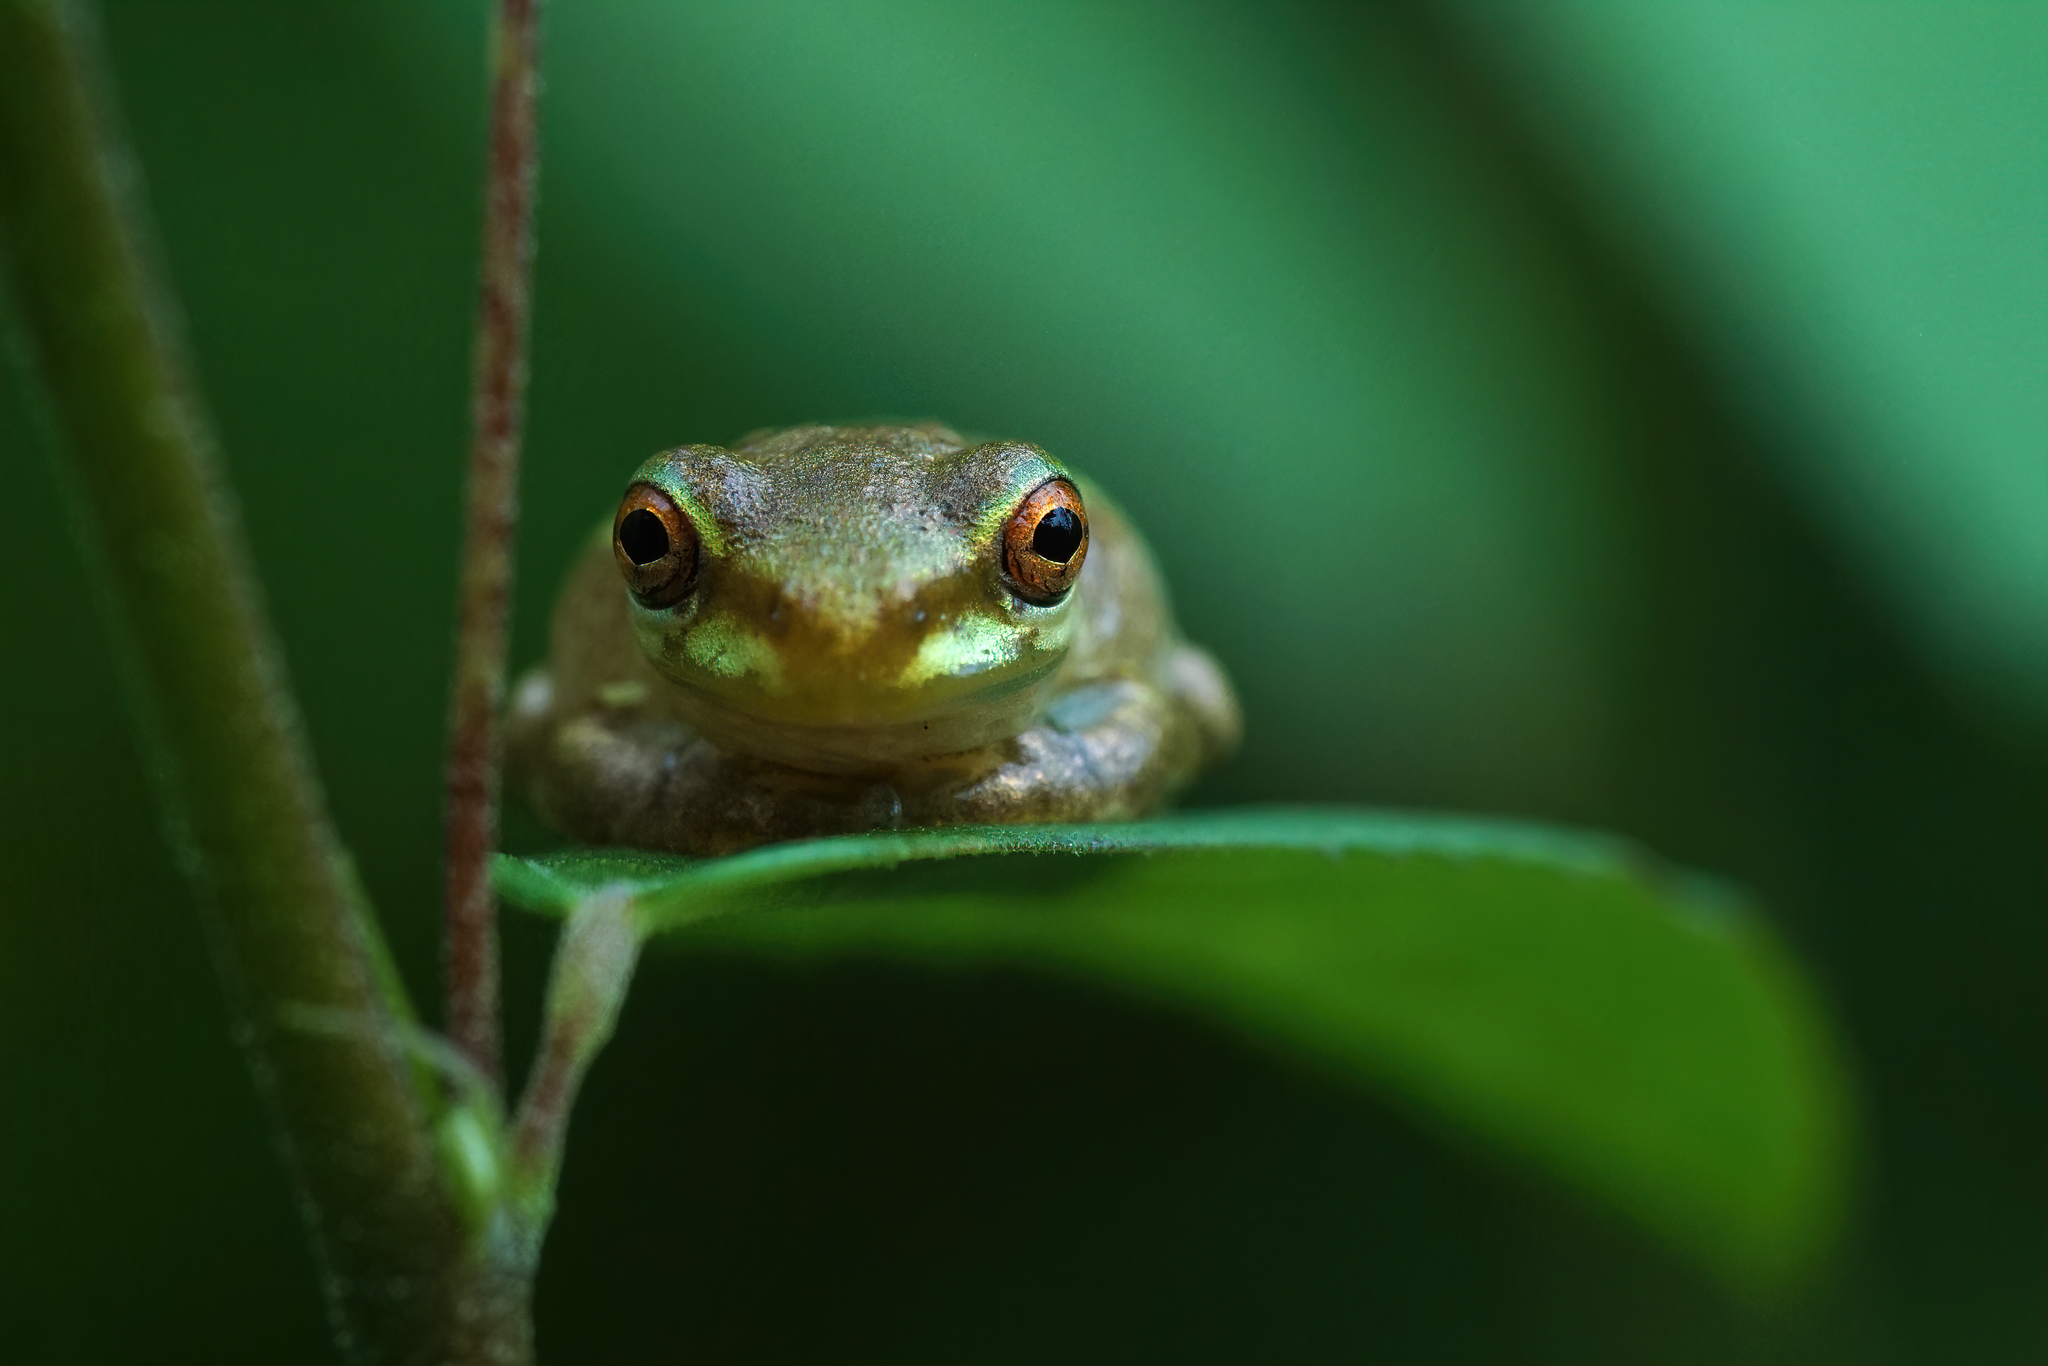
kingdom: Animalia
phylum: Chordata
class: Amphibia
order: Anura
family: Hylidae
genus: Osteopilus
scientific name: Osteopilus septentrionalis
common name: Cuban treefrog
